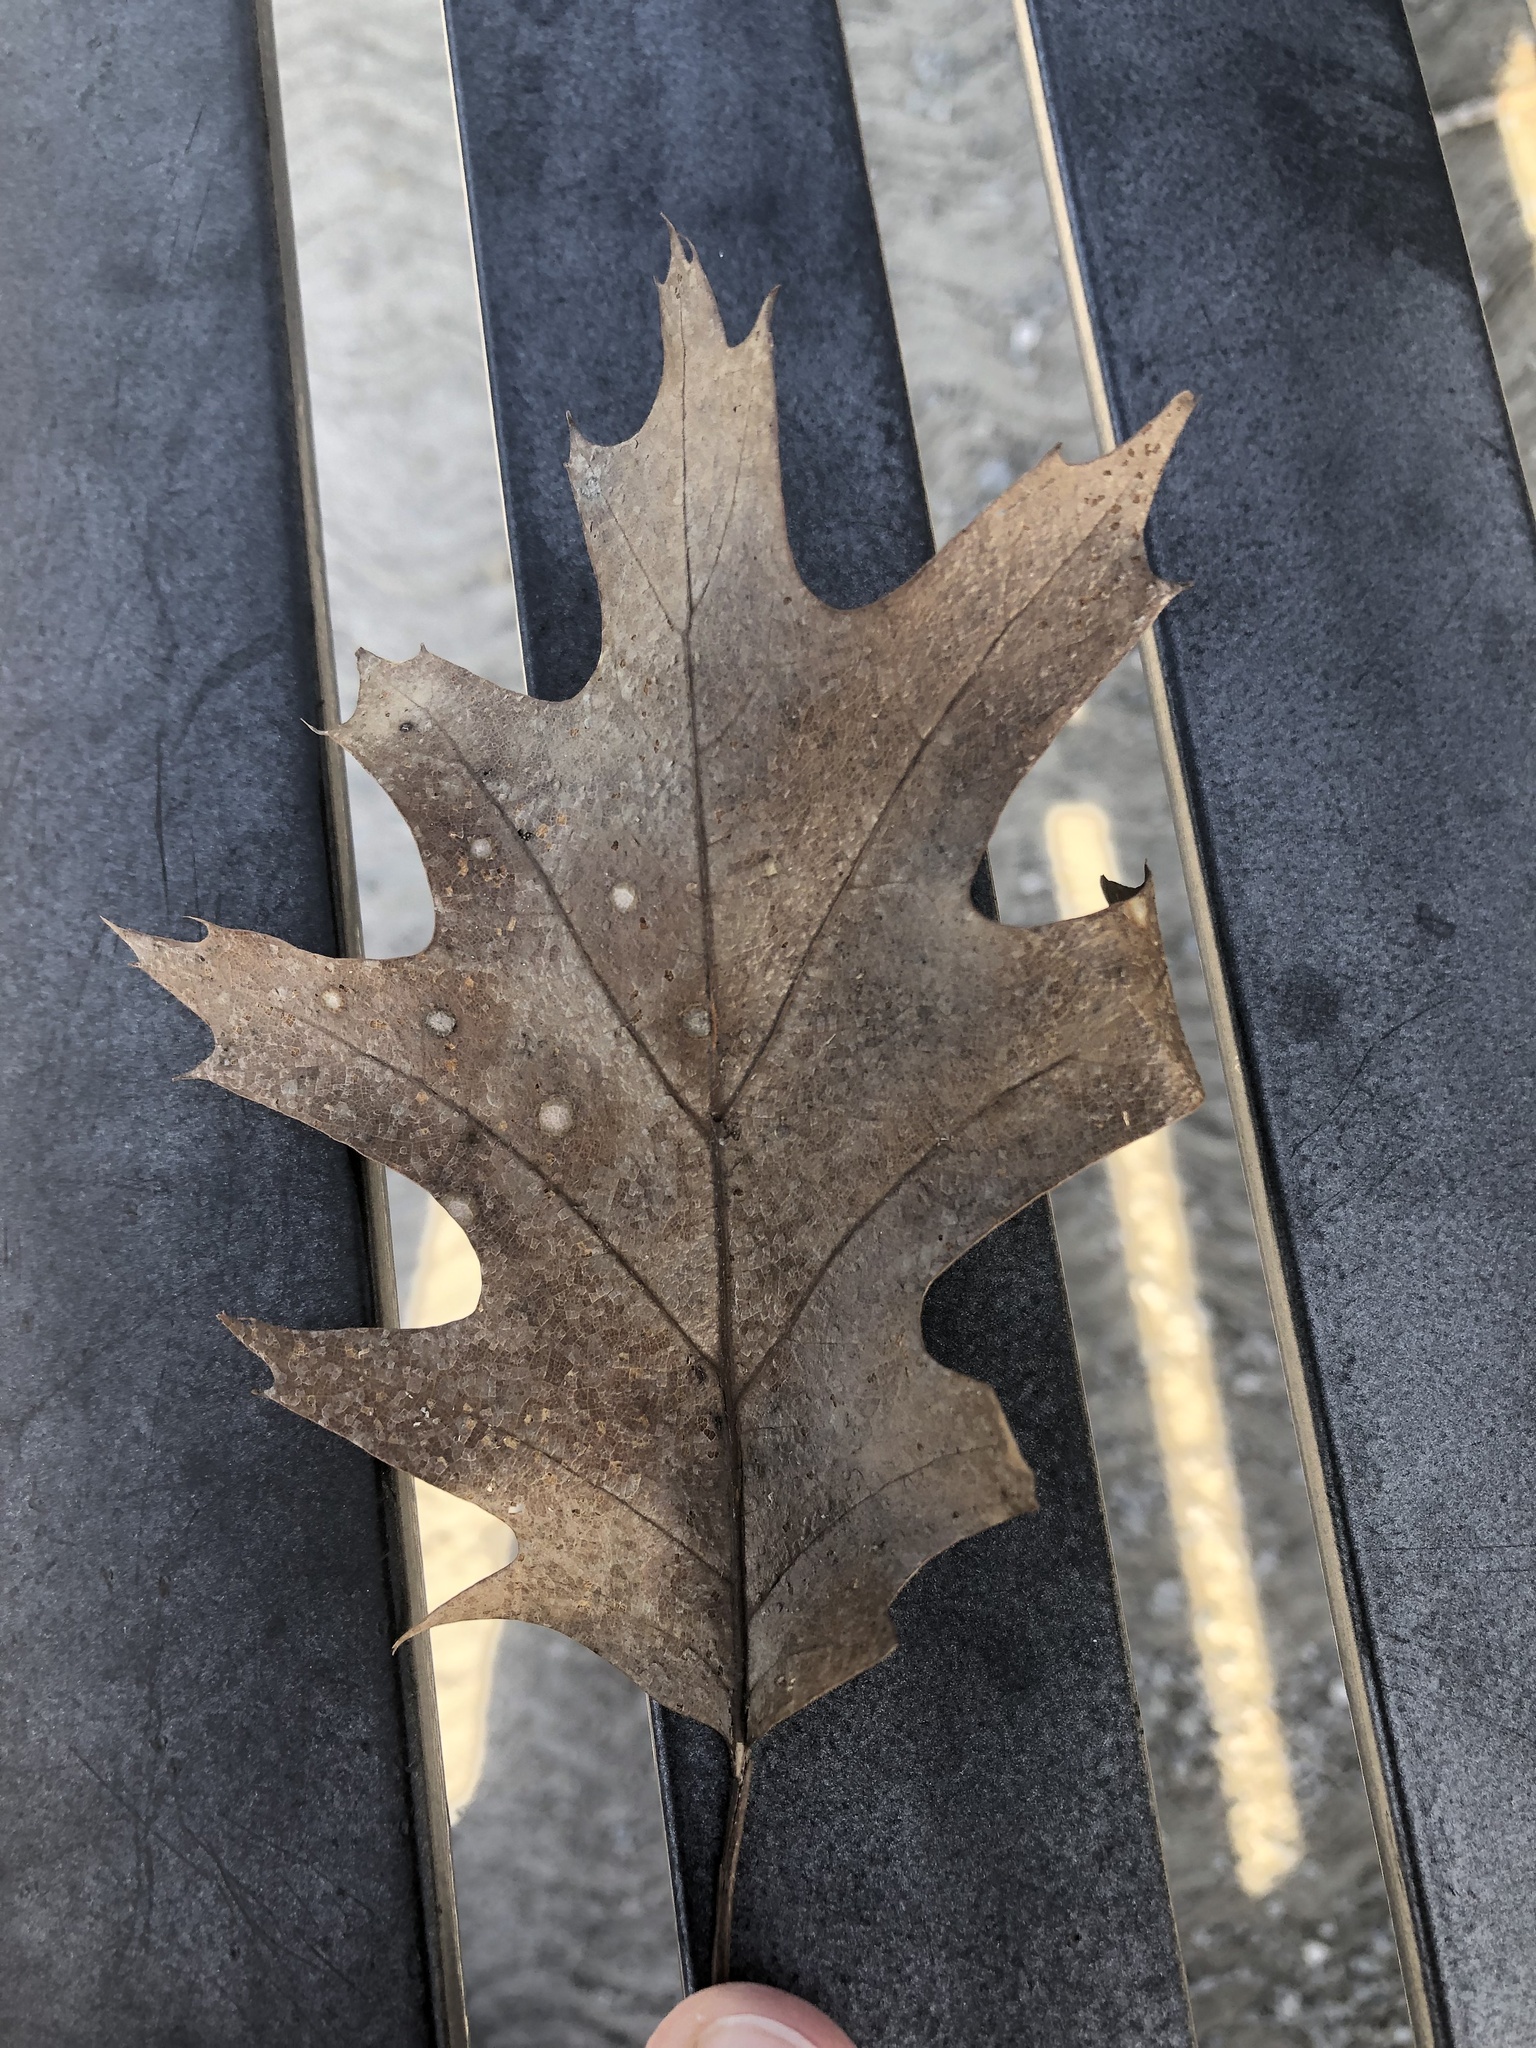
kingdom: Plantae
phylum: Tracheophyta
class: Magnoliopsida
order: Fagales
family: Fagaceae
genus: Quercus
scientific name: Quercus rubra
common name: Red oak
